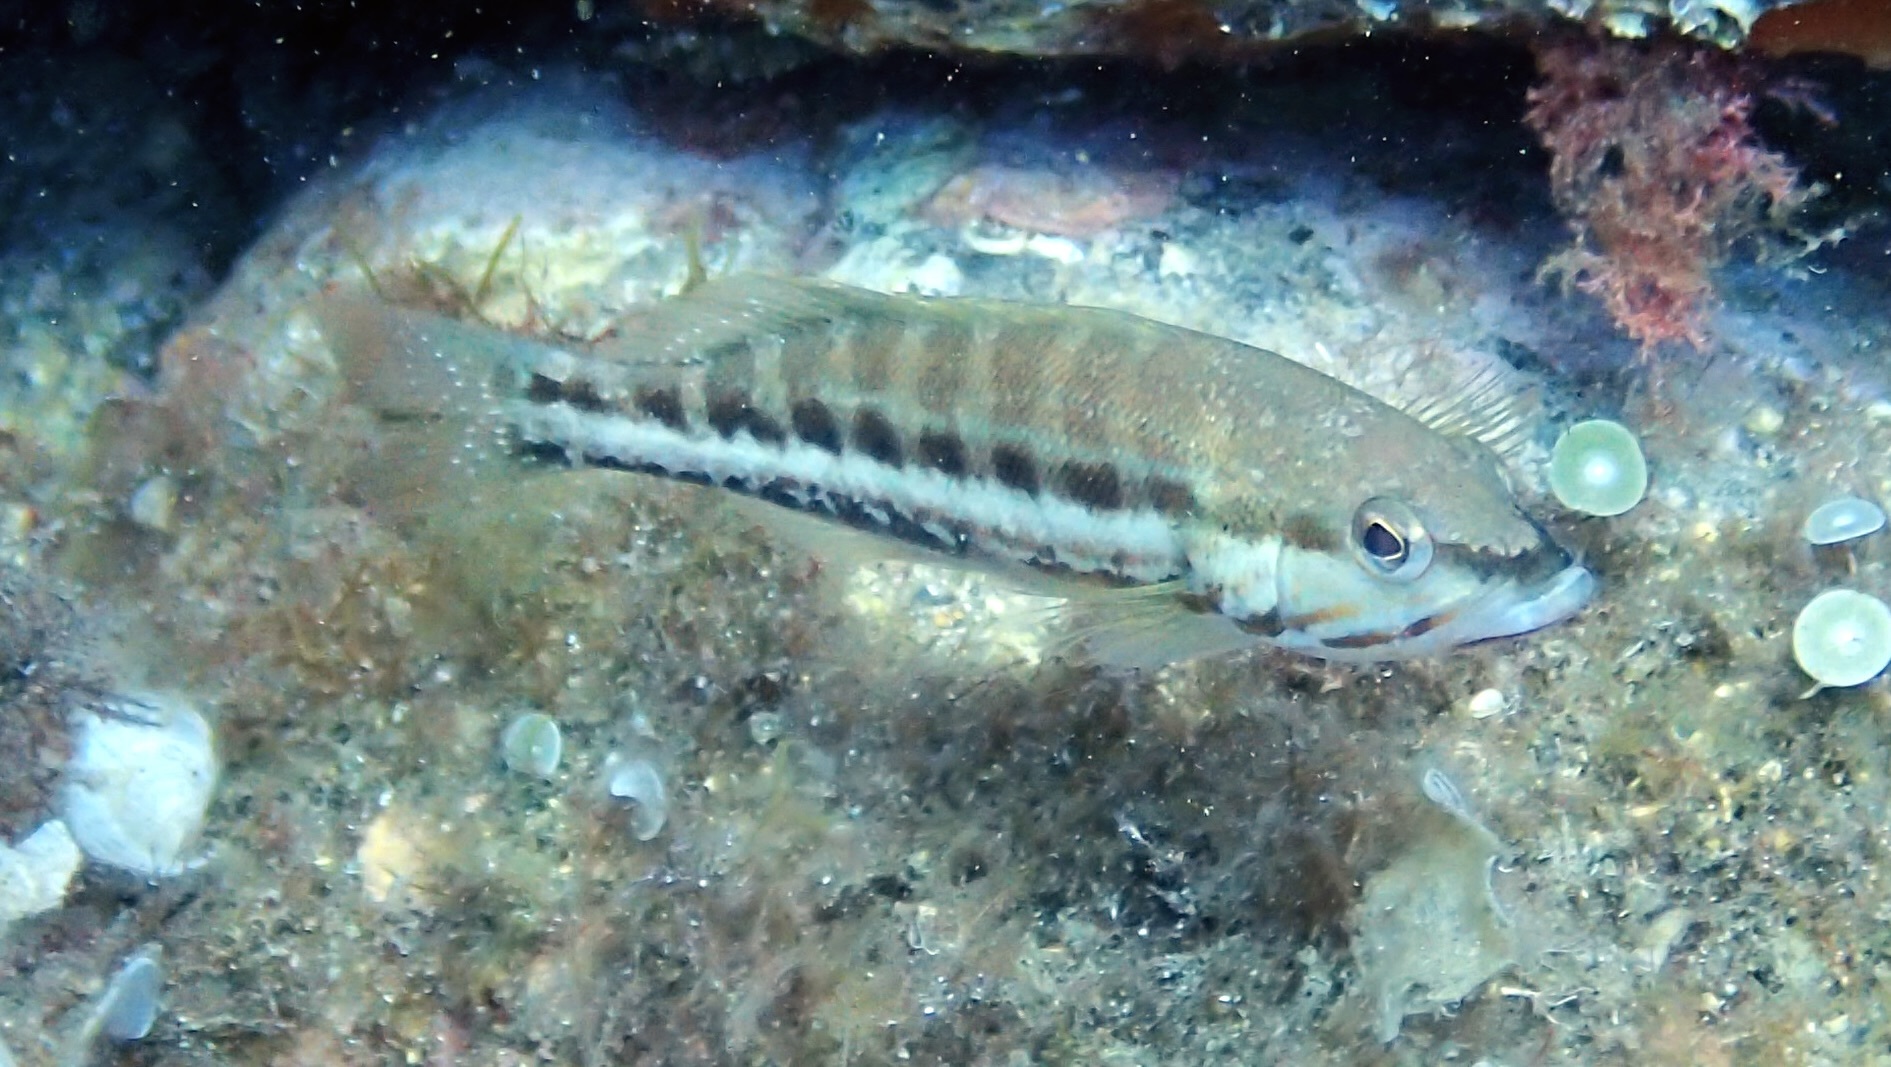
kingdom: Animalia
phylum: Chordata
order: Perciformes
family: Serranidae
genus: Serranus
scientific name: Serranus cabrilla
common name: Comber
